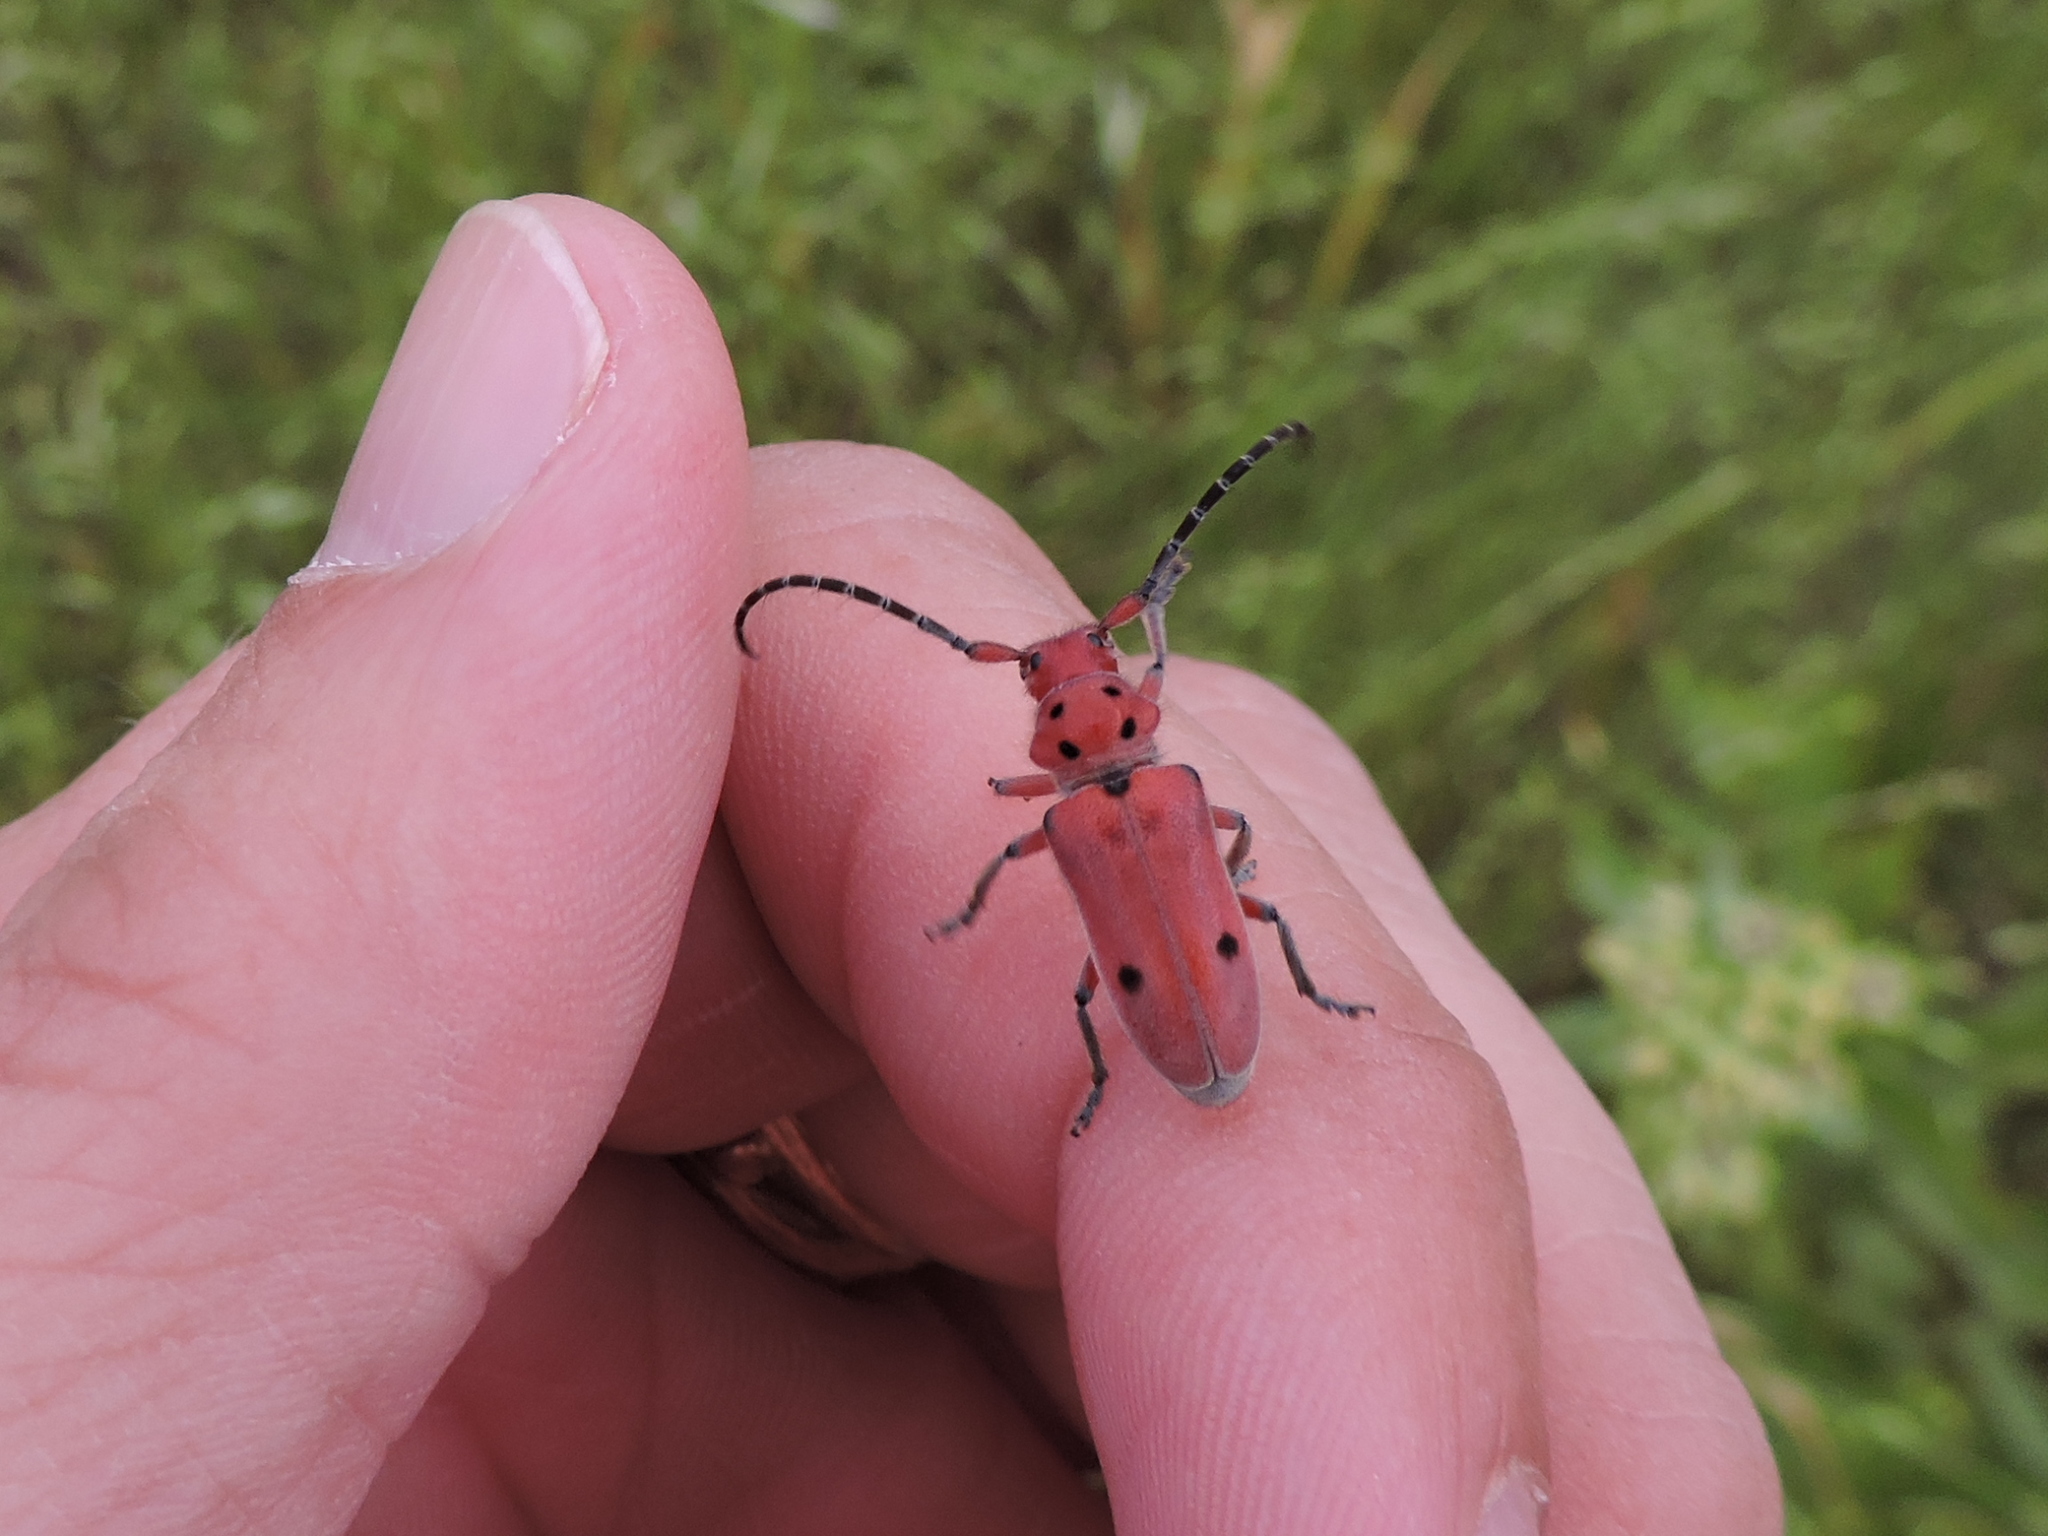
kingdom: Animalia
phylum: Arthropoda
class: Insecta
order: Coleoptera
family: Cerambycidae
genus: Tetraopes
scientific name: Tetraopes texanus
